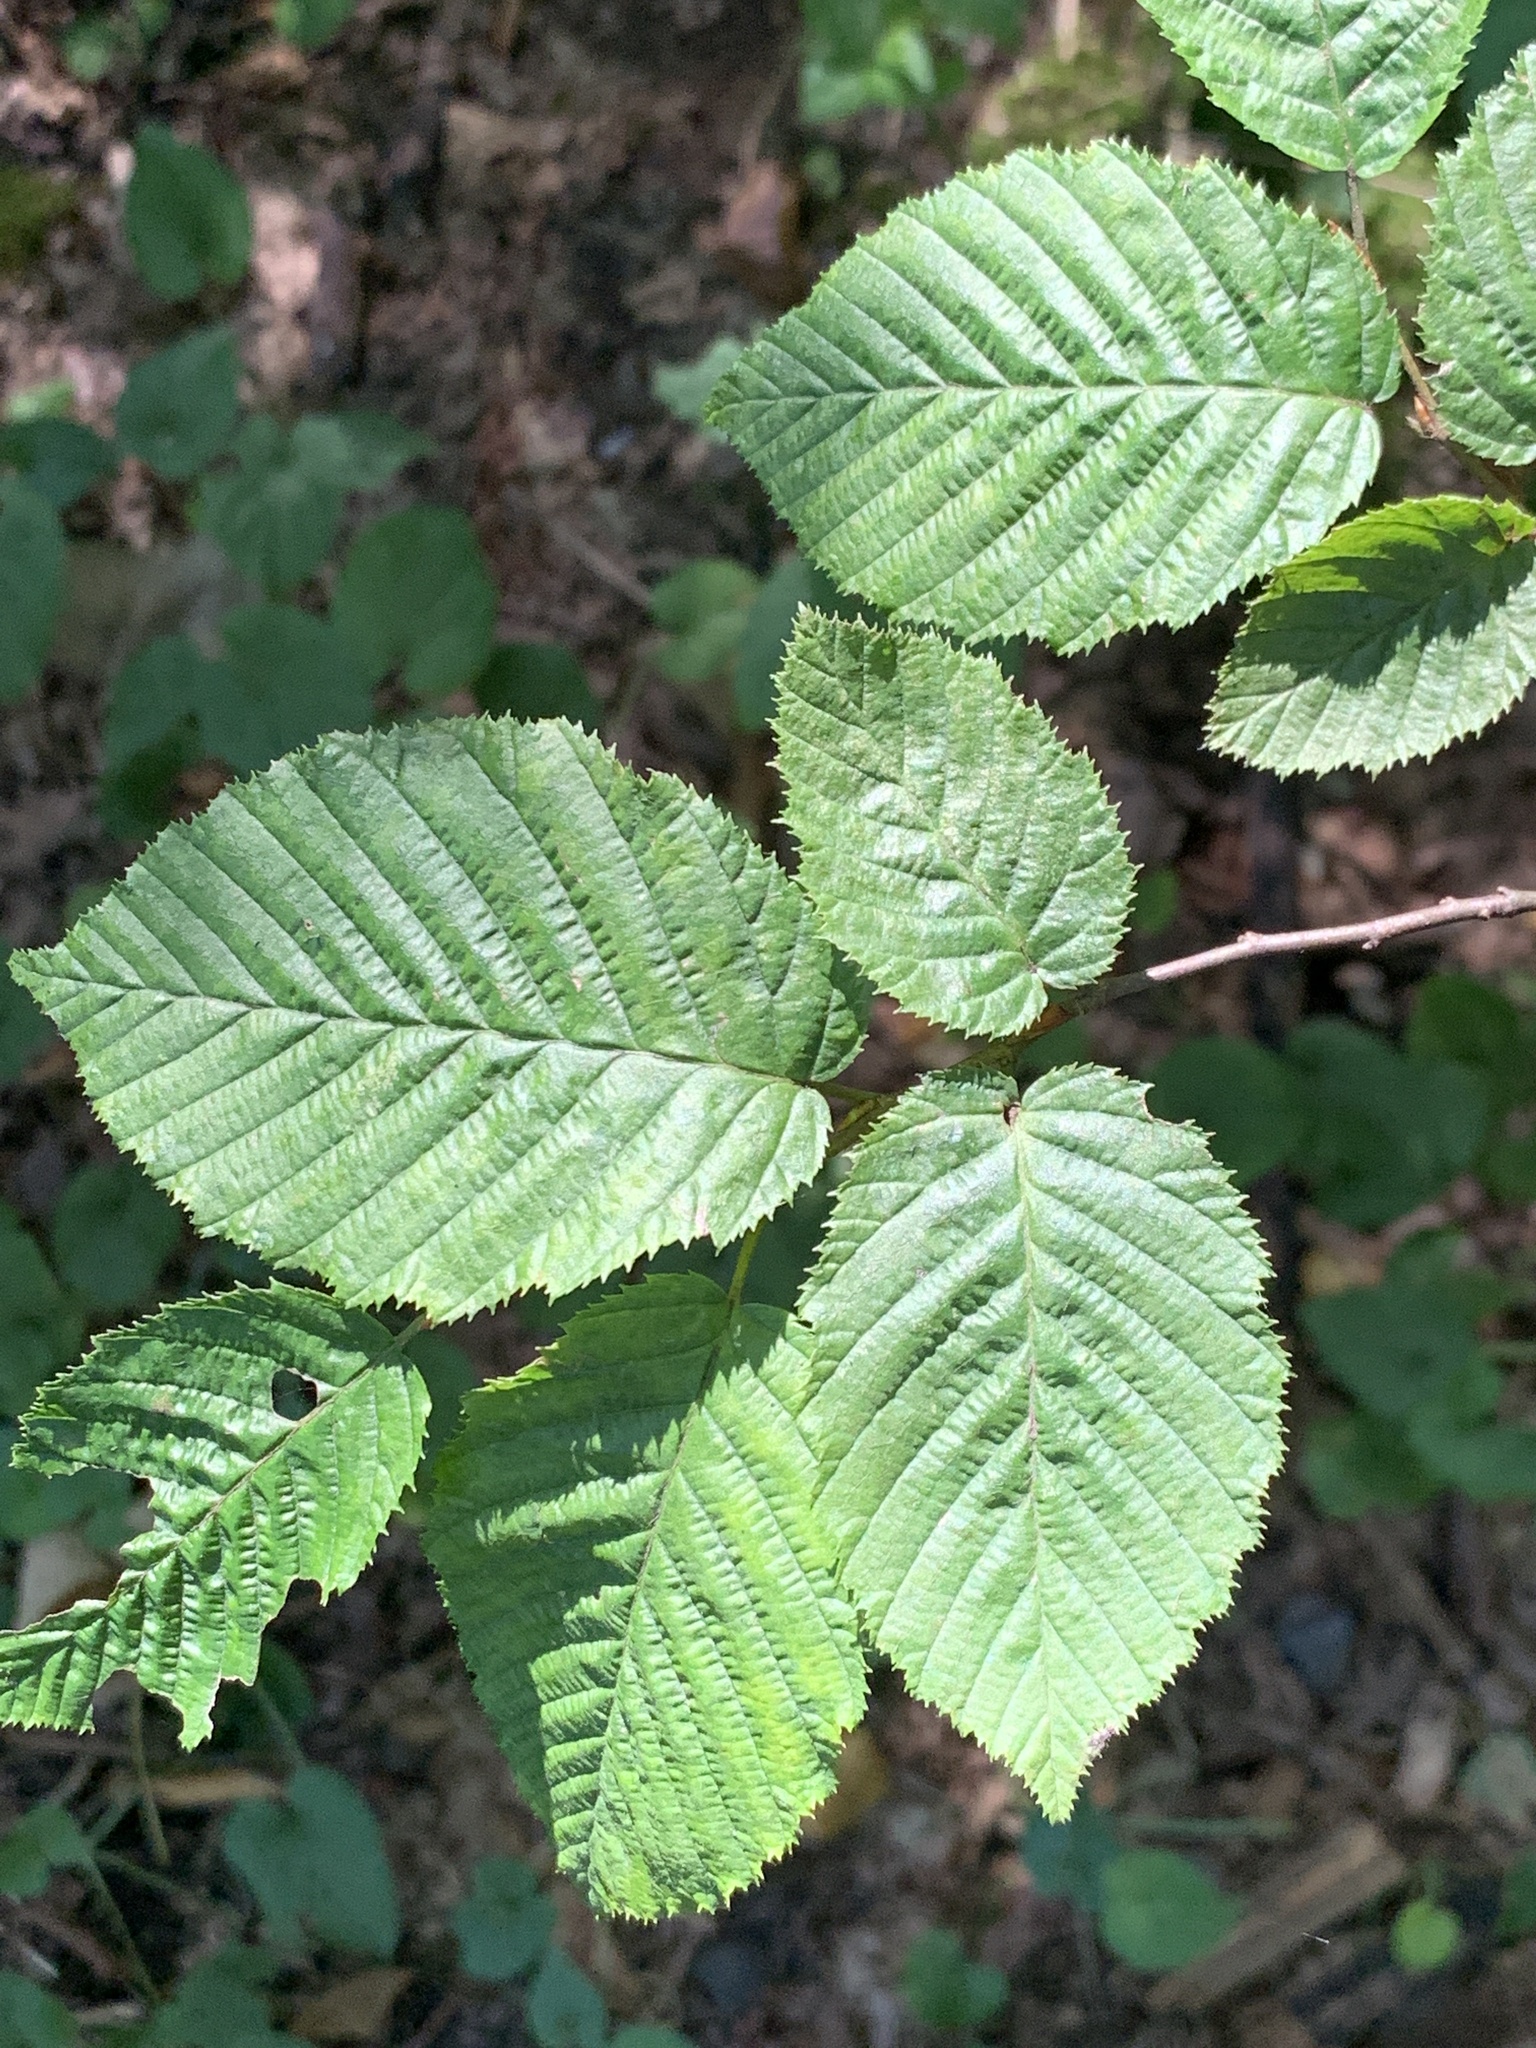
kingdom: Plantae
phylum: Tracheophyta
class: Magnoliopsida
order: Fagales
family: Betulaceae
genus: Carpinus
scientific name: Carpinus betulus
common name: Hornbeam
